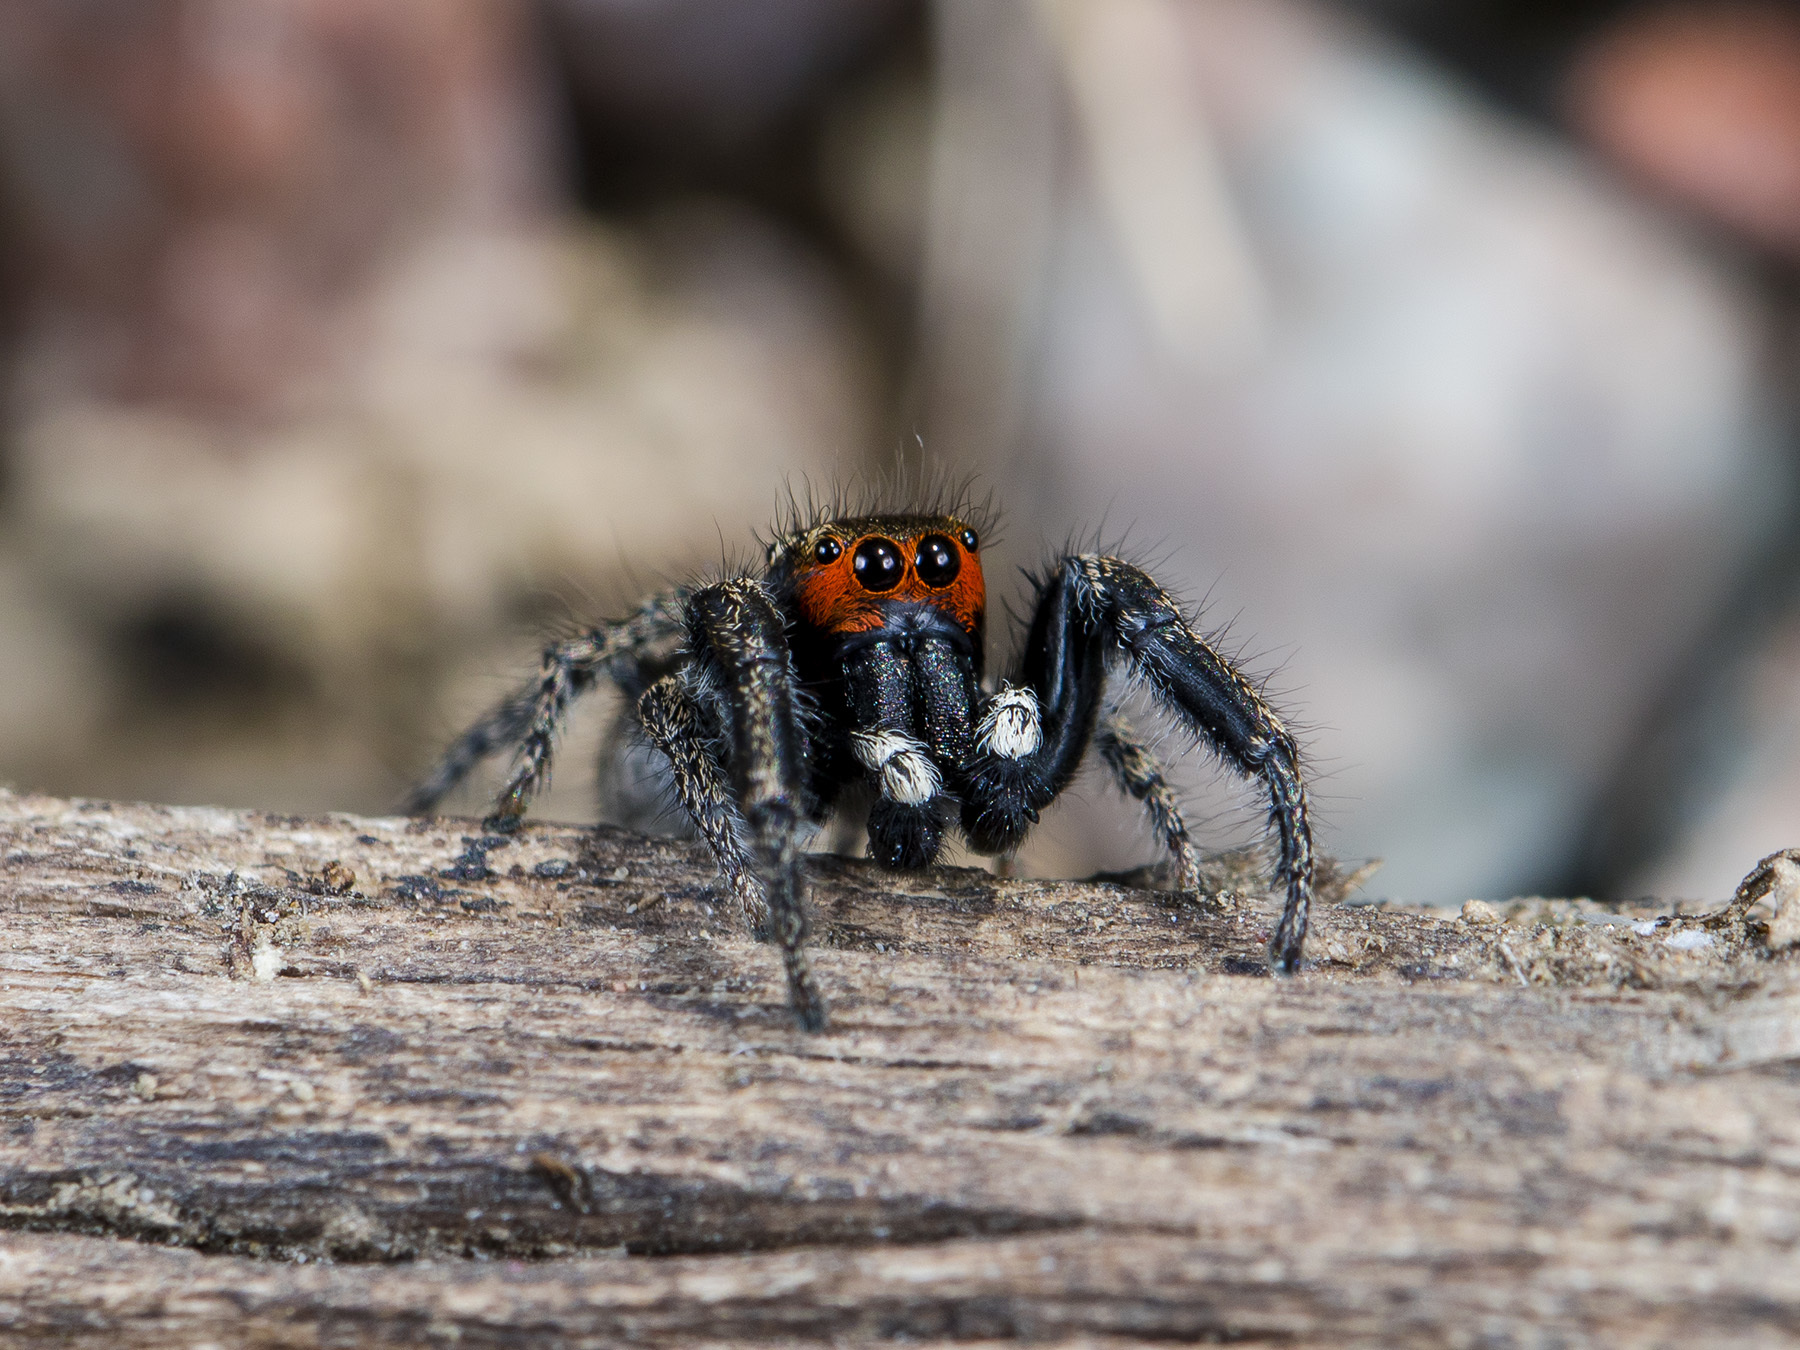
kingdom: Animalia
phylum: Arthropoda
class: Arachnida
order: Araneae
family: Salticidae
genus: Pellenes
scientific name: Pellenes seriatus
